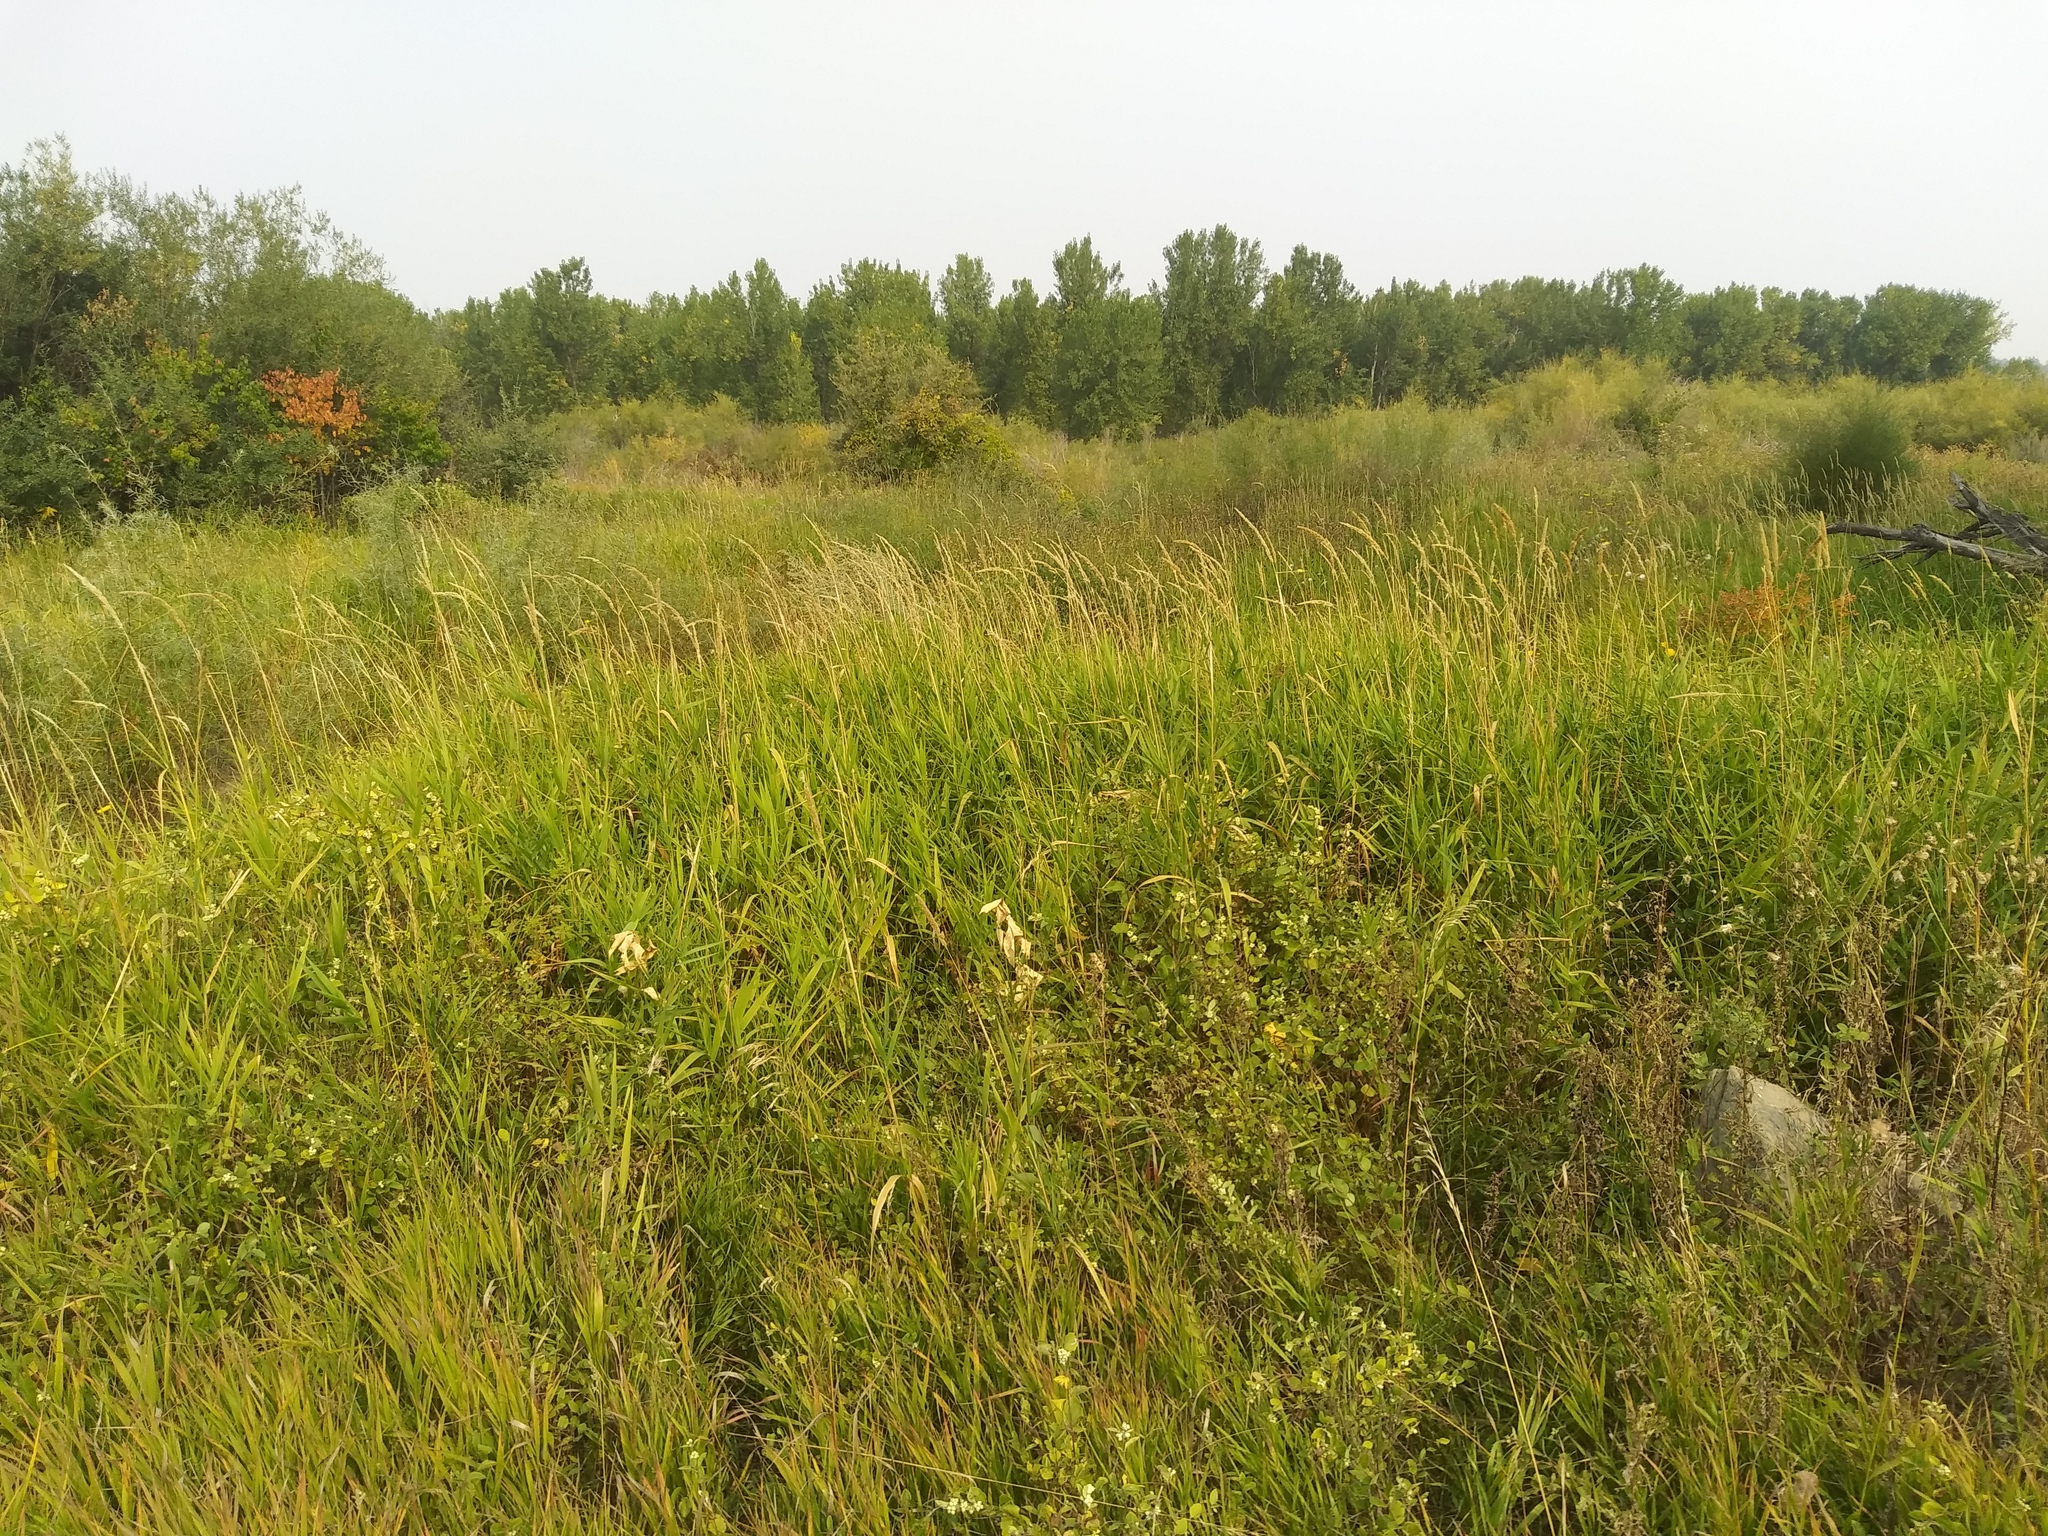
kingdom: Plantae
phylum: Tracheophyta
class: Liliopsida
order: Poales
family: Poaceae
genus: Phalaris
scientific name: Phalaris arundinacea
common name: Reed canary-grass
